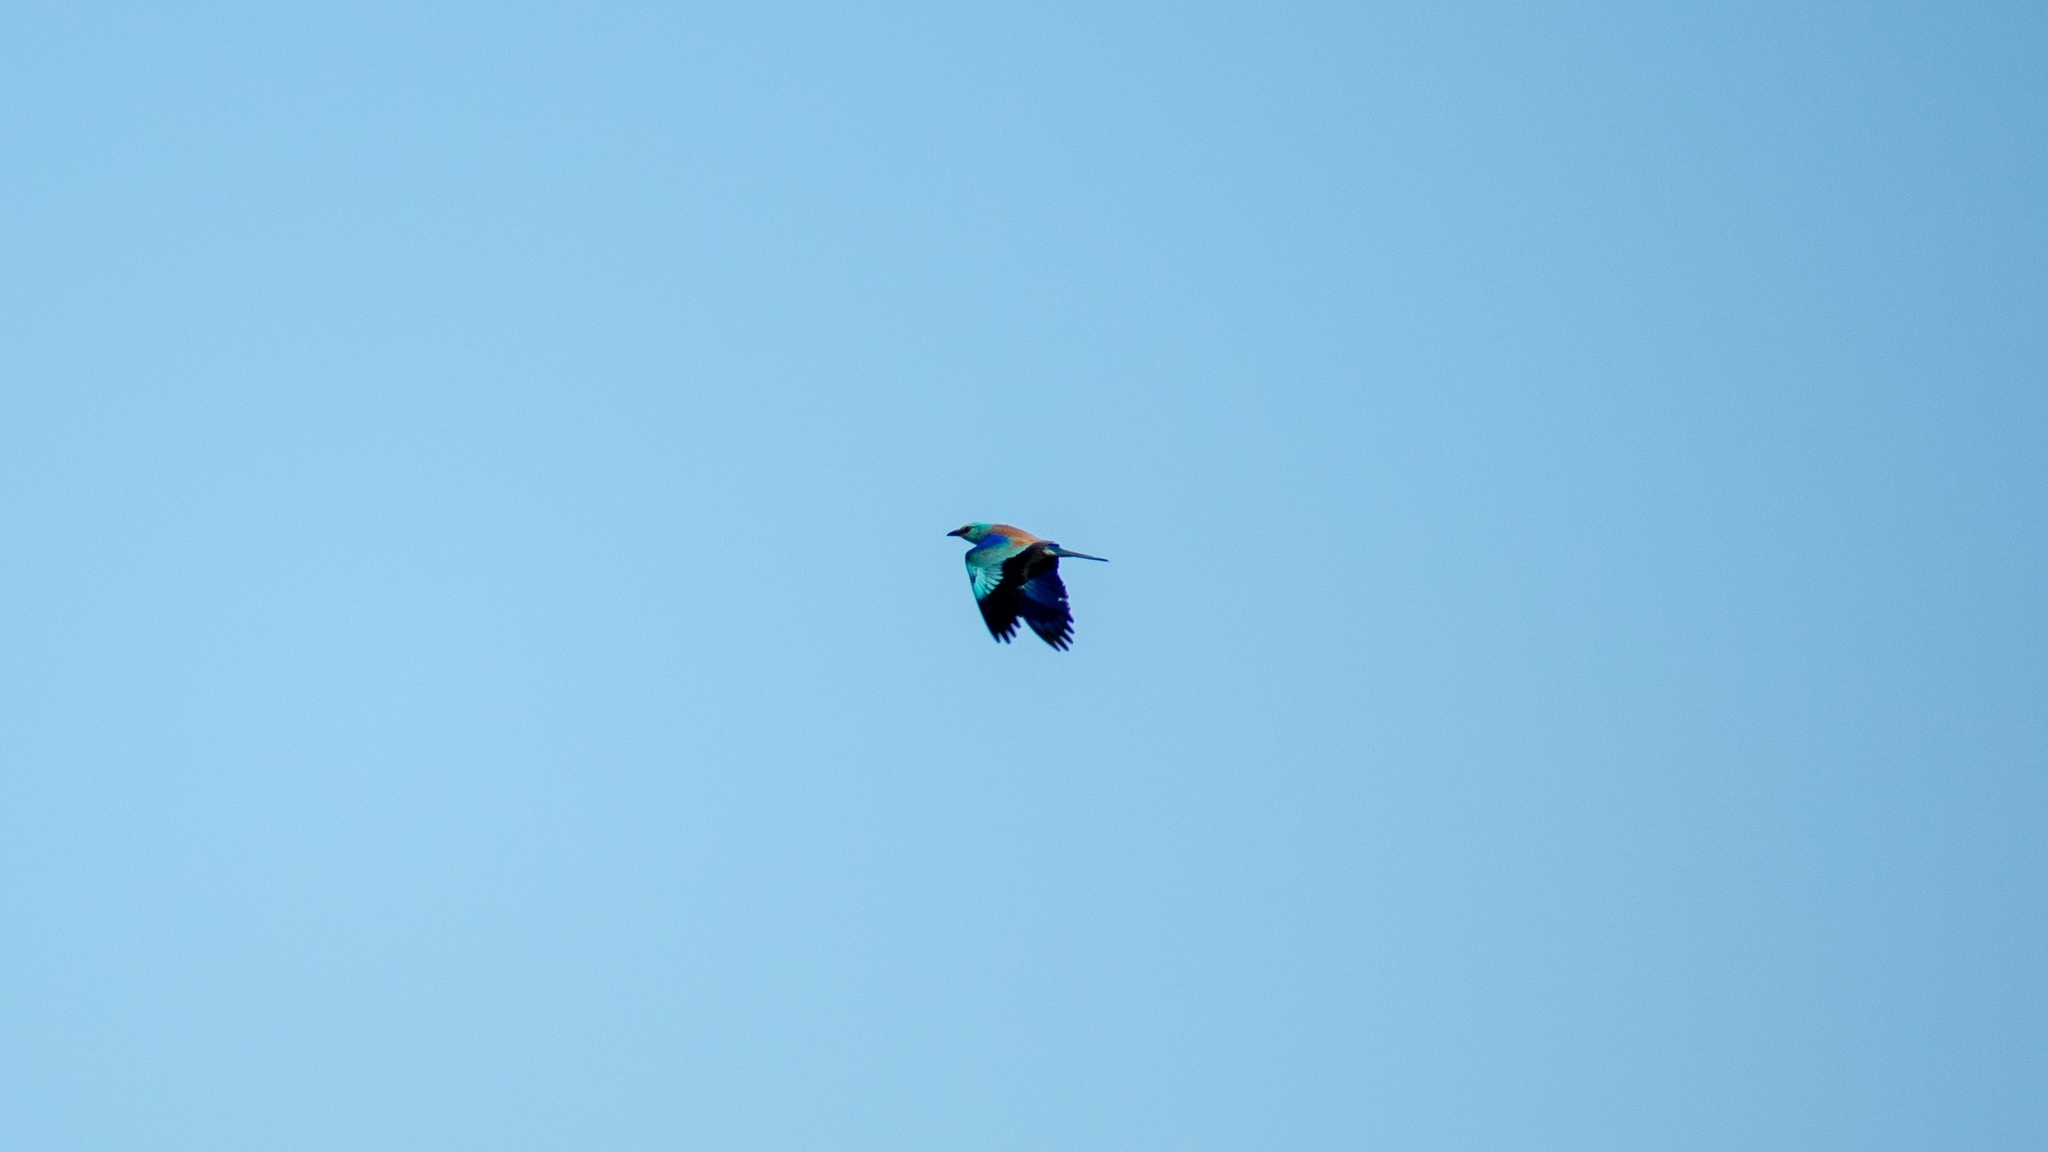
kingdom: Animalia
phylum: Chordata
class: Aves
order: Coraciiformes
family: Coraciidae
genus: Coracias
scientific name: Coracias garrulus
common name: European roller
